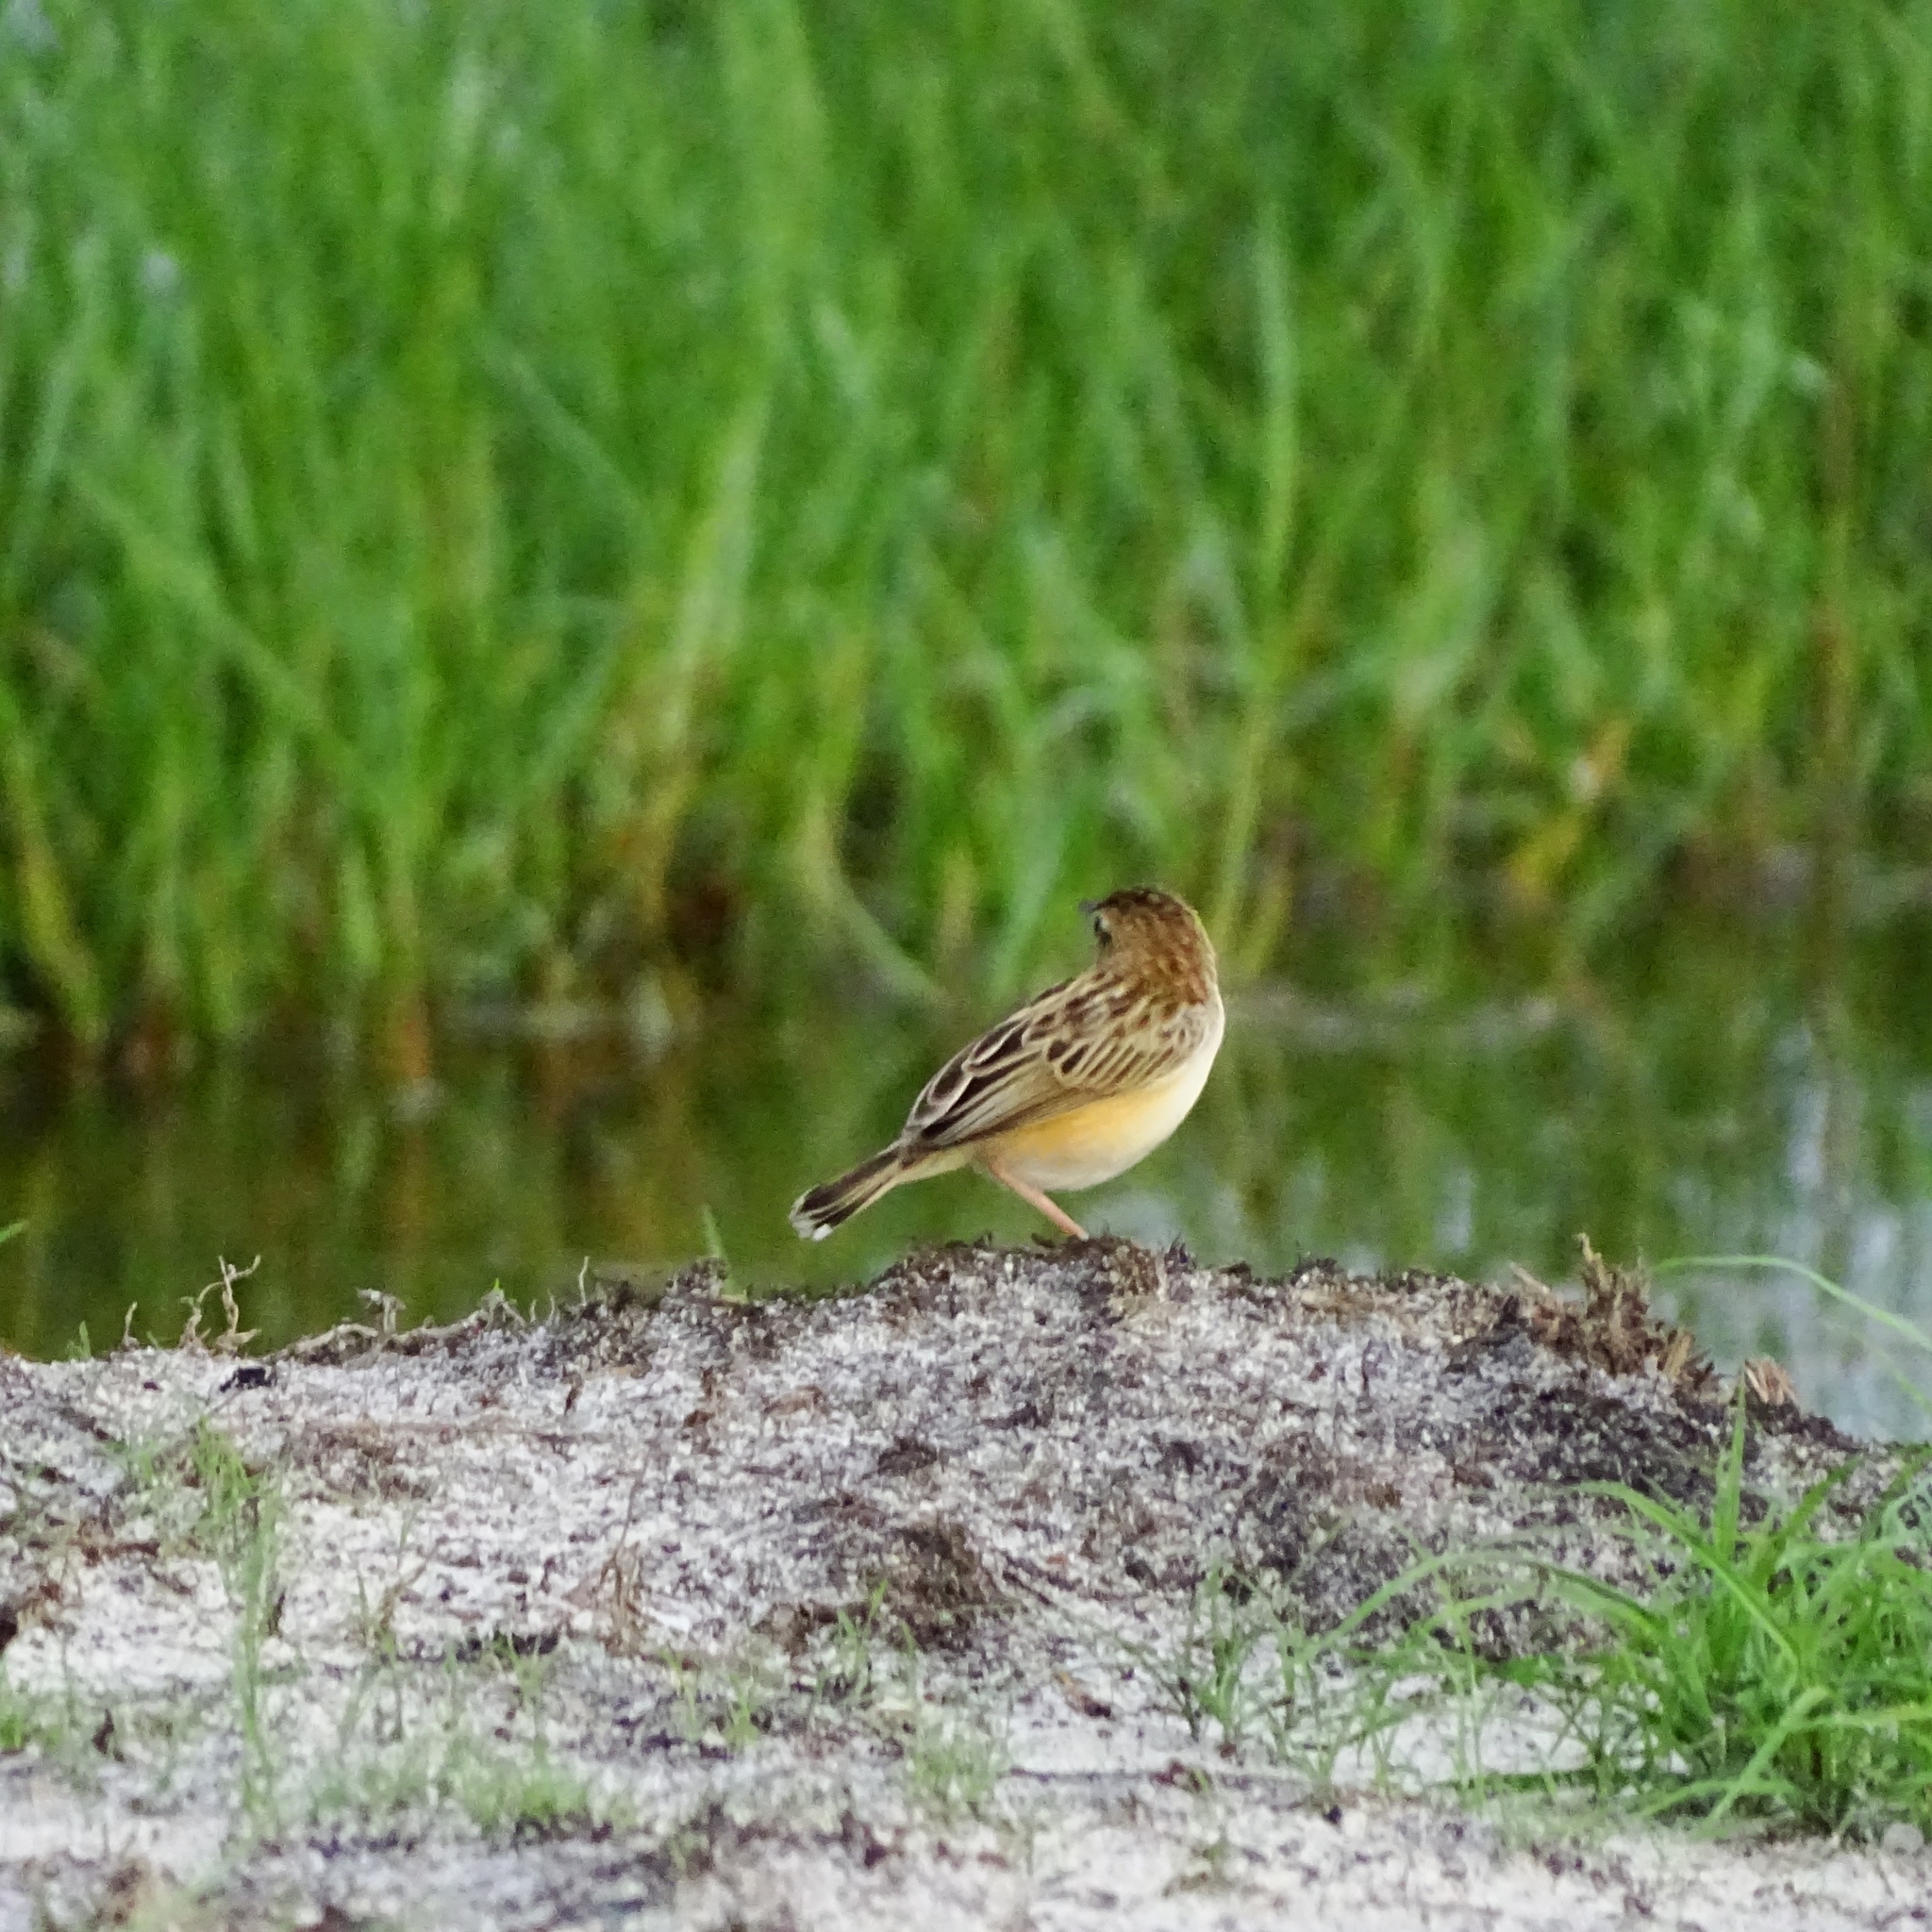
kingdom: Animalia
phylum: Chordata
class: Aves
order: Passeriformes
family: Cisticolidae
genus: Cisticola
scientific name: Cisticola juncidis
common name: Zitting cisticola
